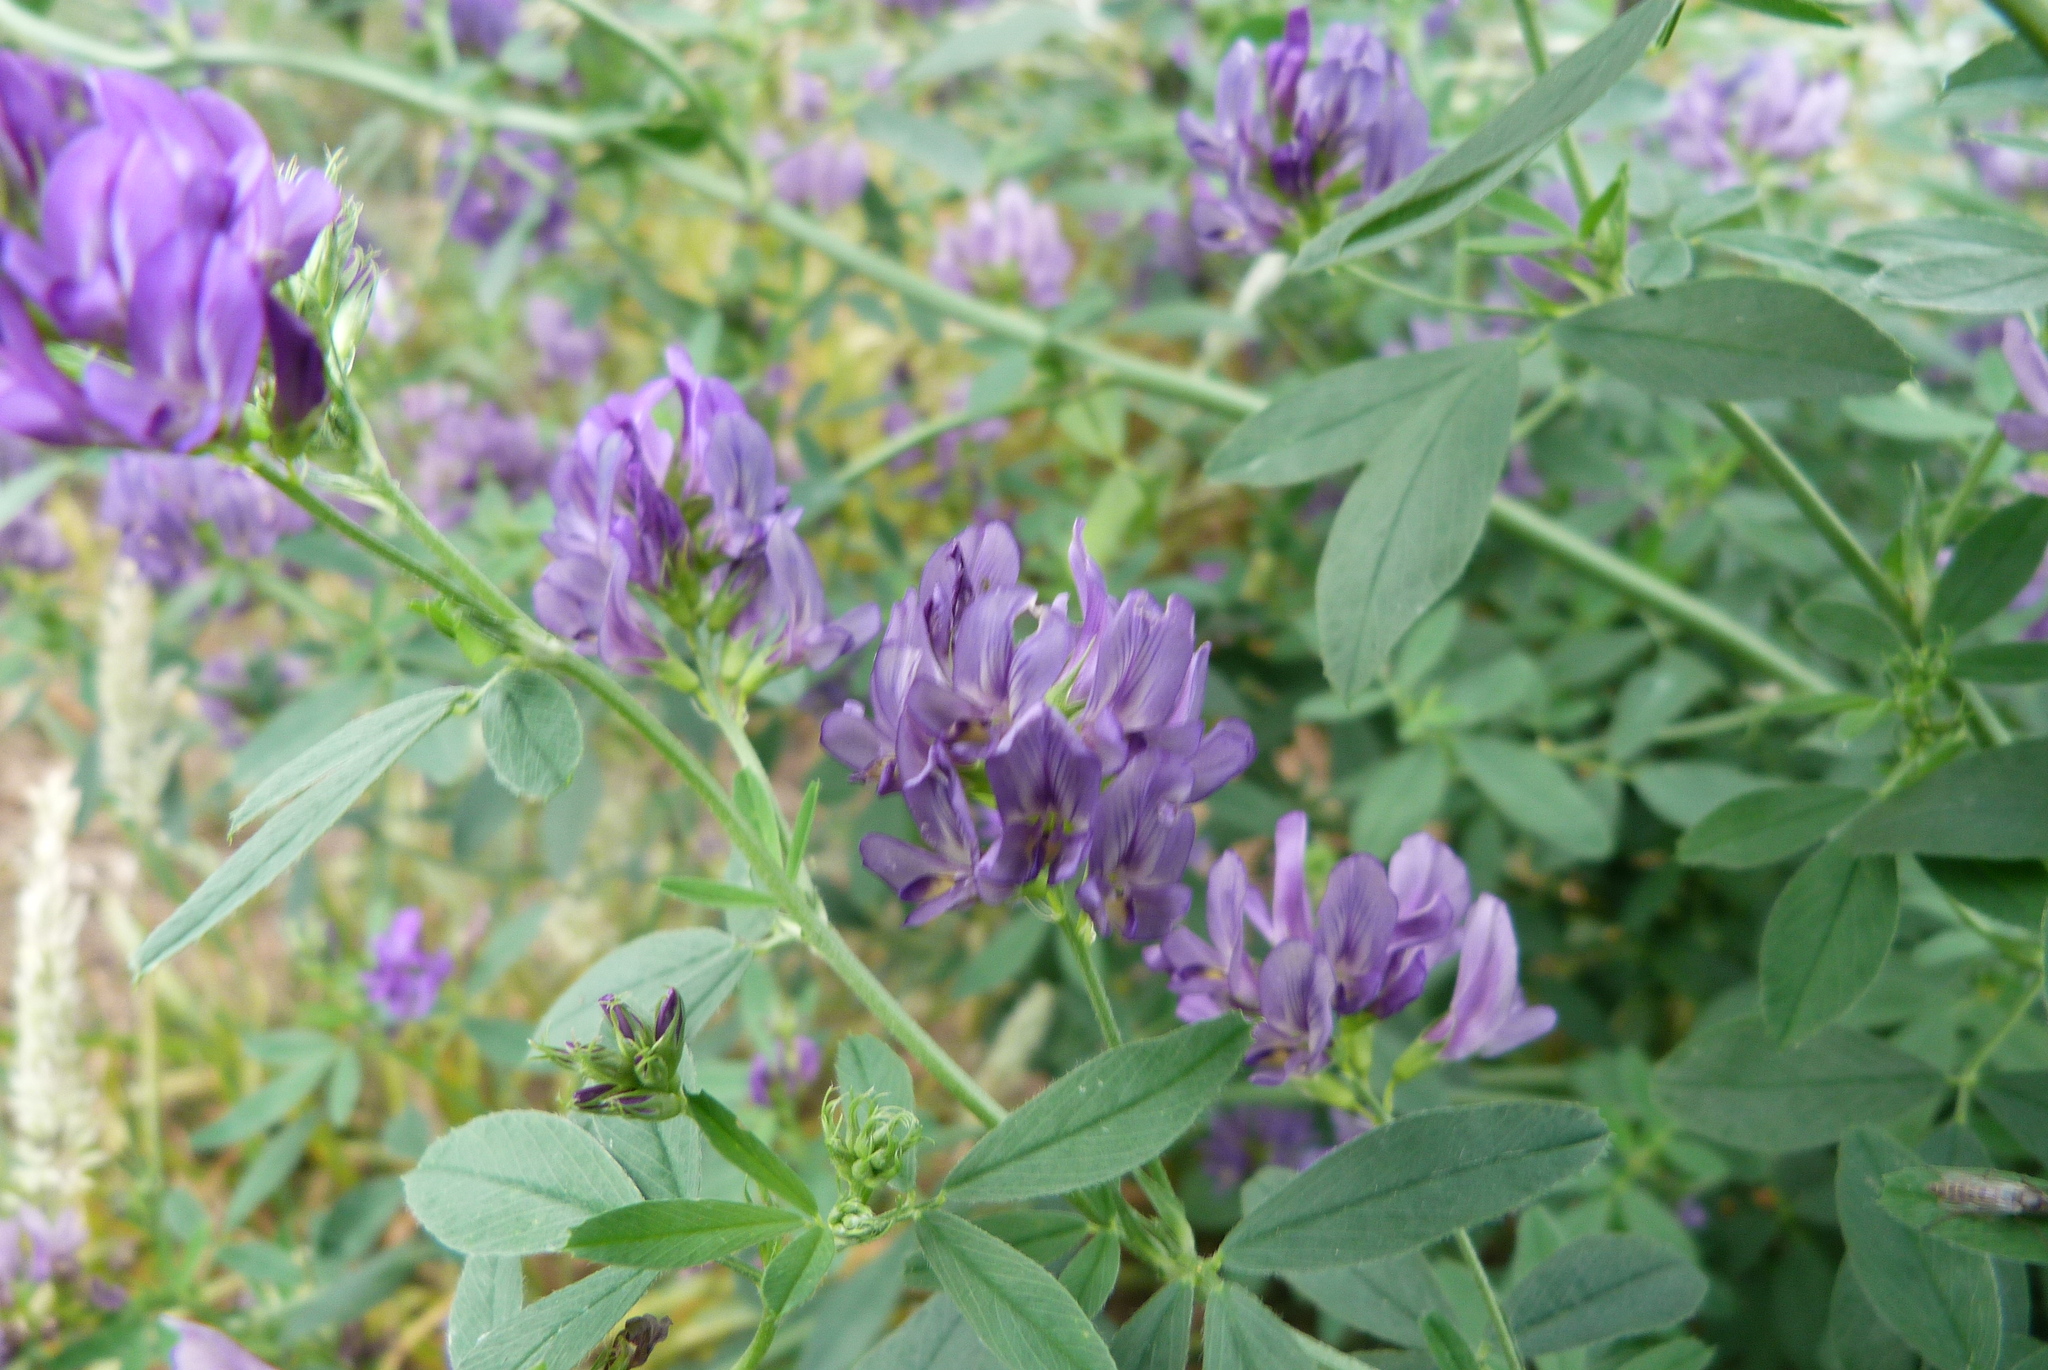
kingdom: Plantae
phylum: Tracheophyta
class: Magnoliopsida
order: Fabales
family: Fabaceae
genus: Medicago
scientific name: Medicago sativa
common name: Alfalfa
